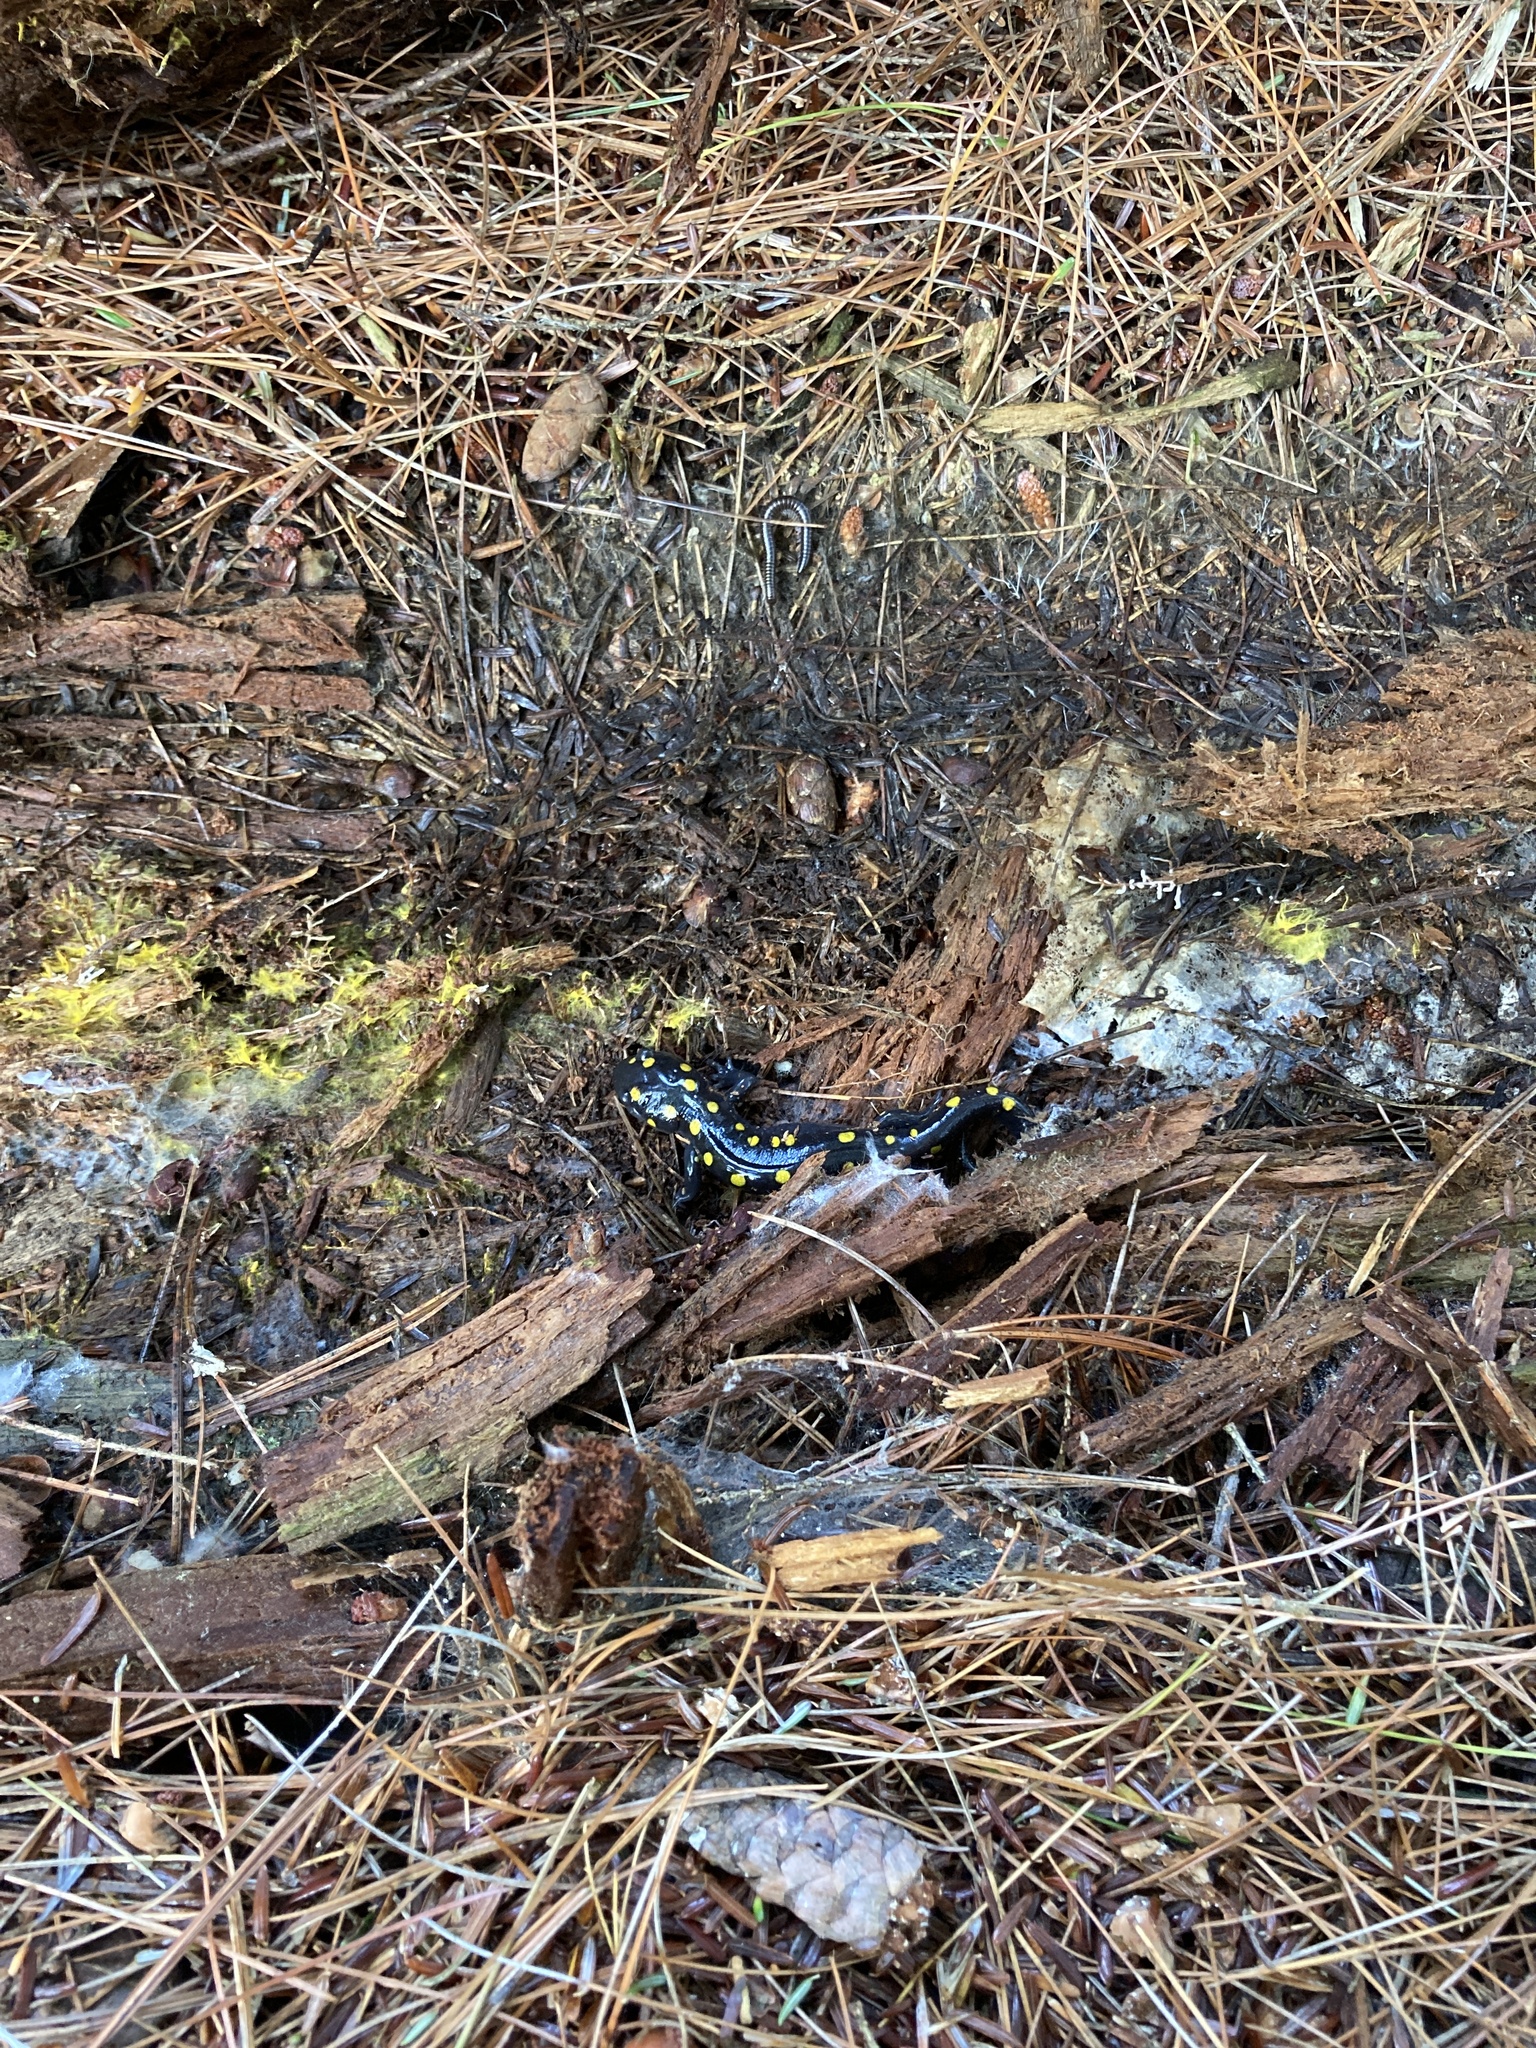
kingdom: Animalia
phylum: Chordata
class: Amphibia
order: Caudata
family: Ambystomatidae
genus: Ambystoma
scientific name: Ambystoma maculatum
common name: Spotted salamander
